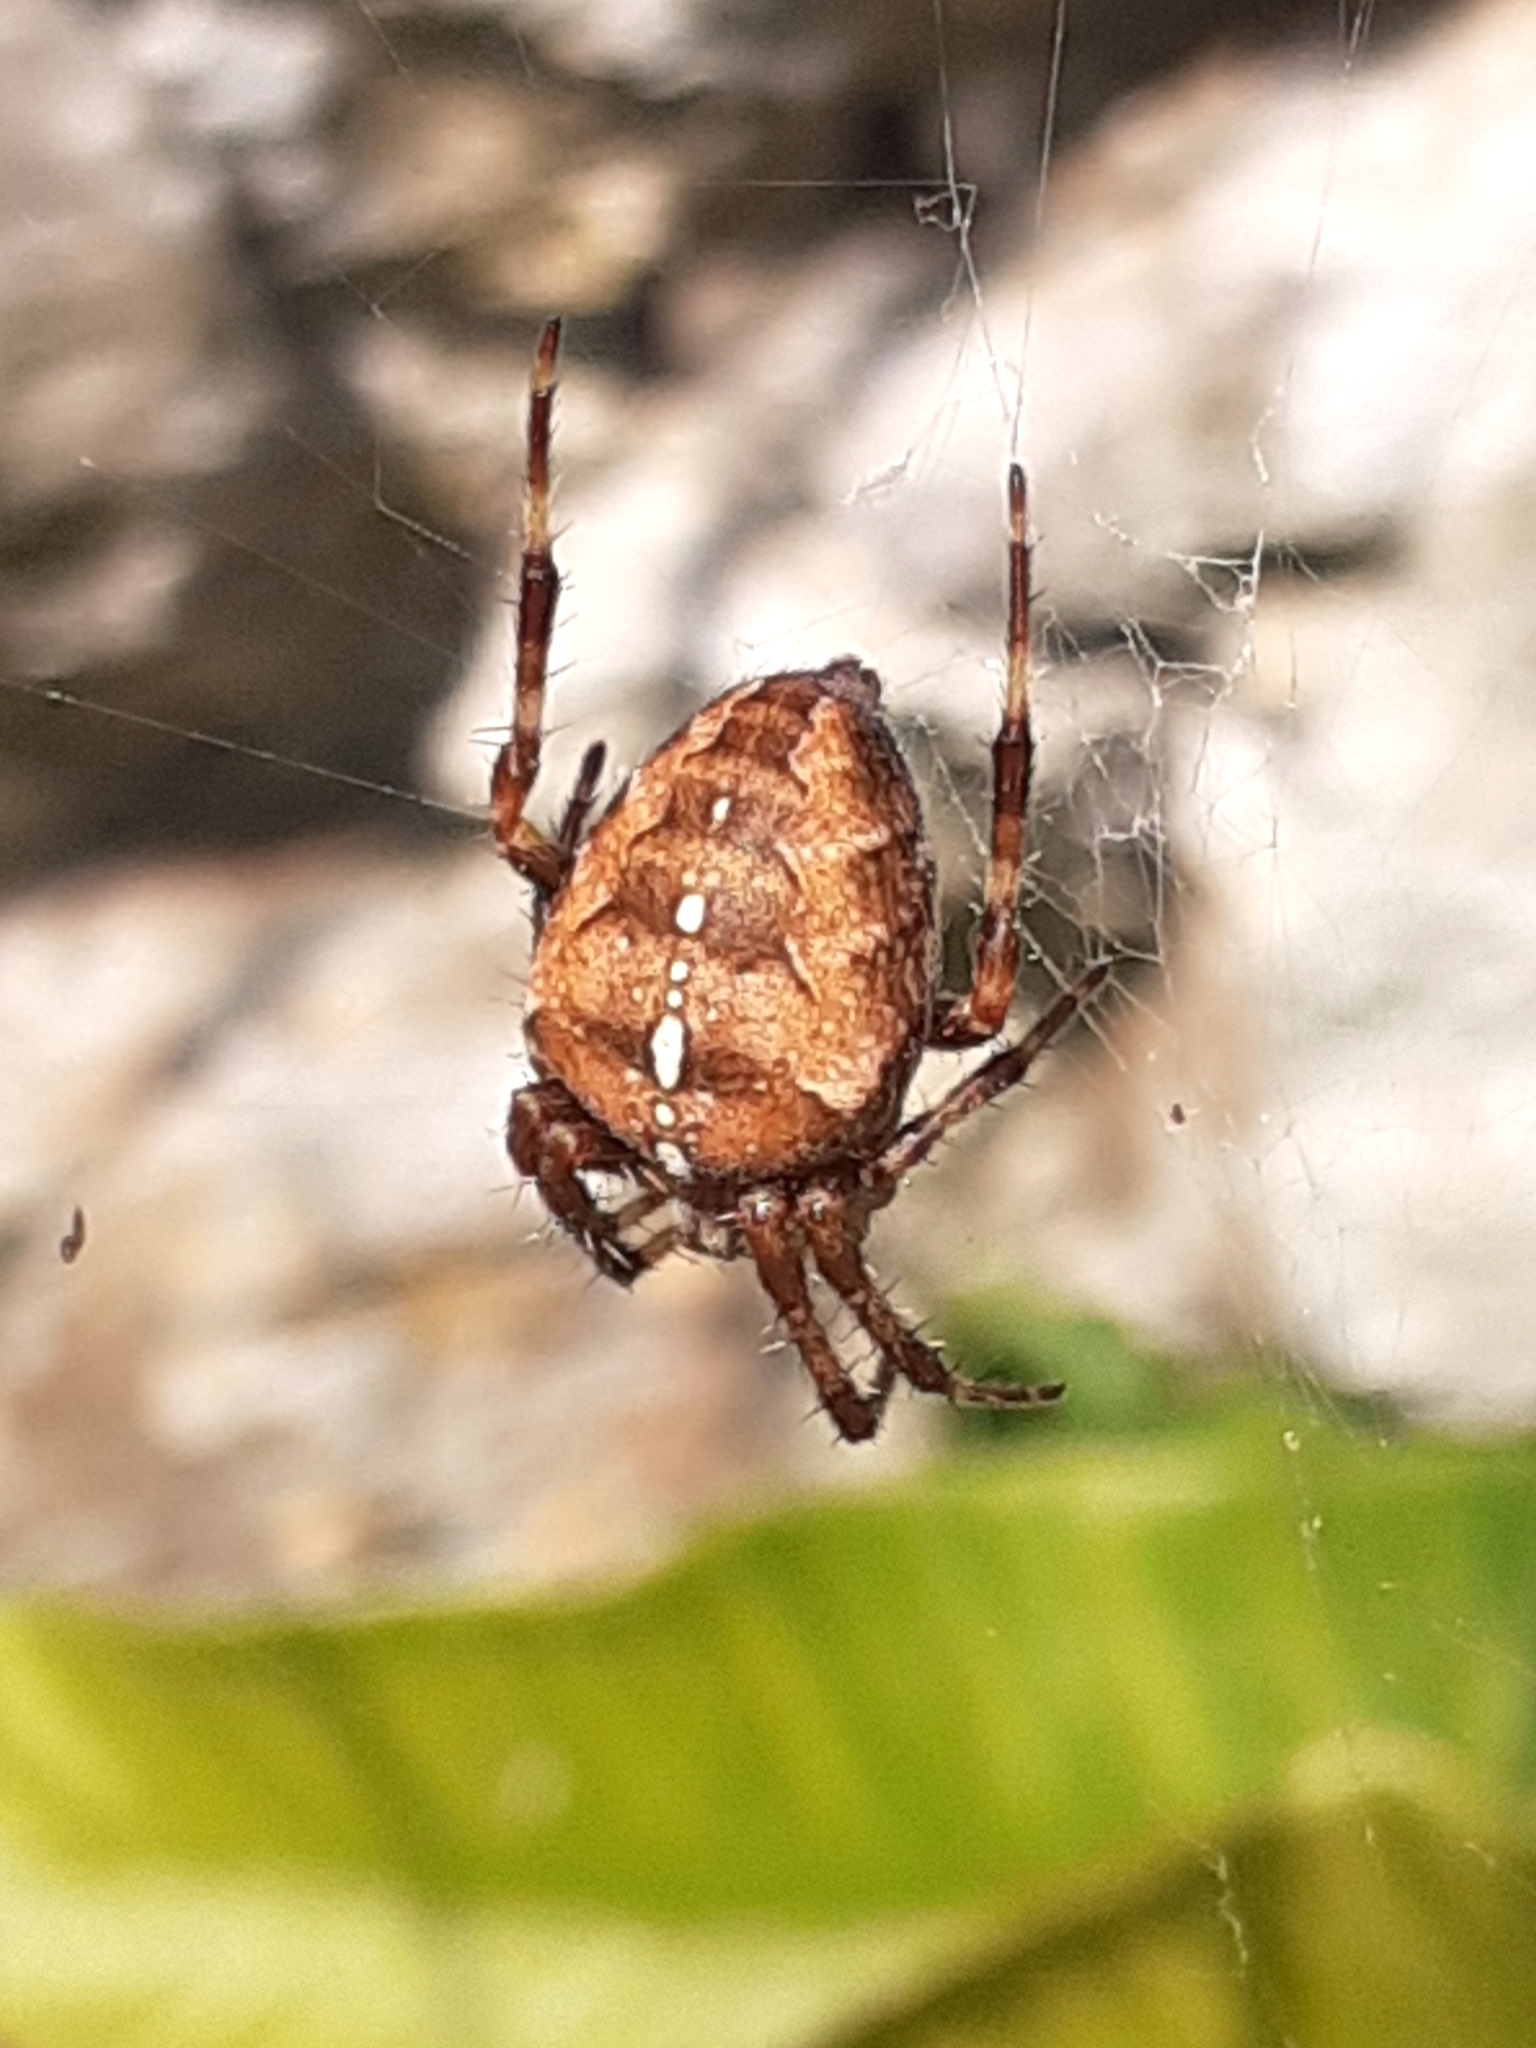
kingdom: Animalia
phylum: Arthropoda
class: Arachnida
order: Araneae
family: Araneidae
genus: Araneus
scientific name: Araneus diadematus
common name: Cross orbweaver
